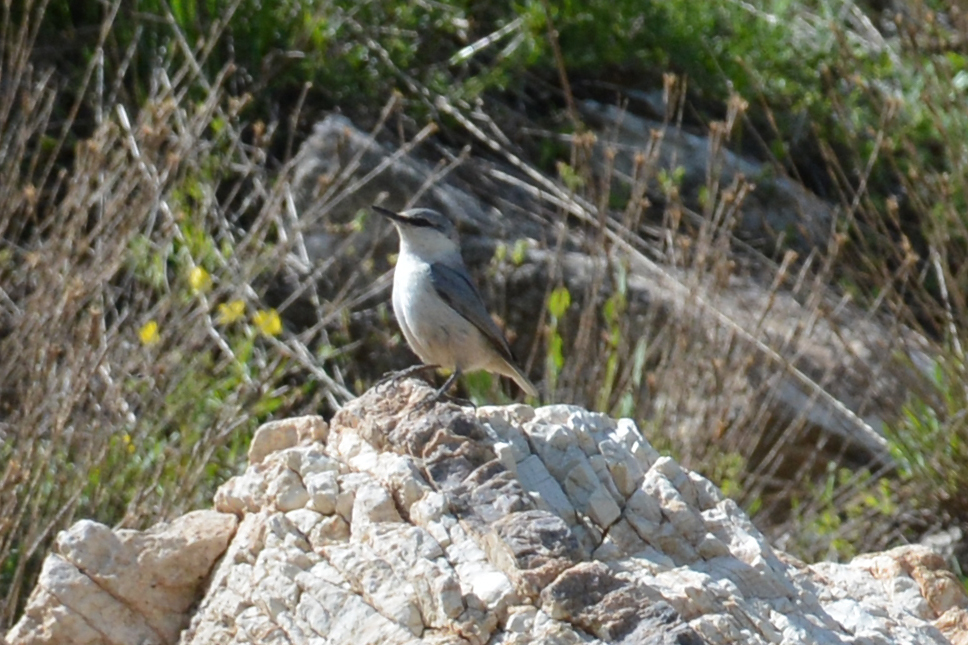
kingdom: Animalia
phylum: Chordata
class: Aves
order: Passeriformes
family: Sittidae
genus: Sitta
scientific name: Sitta neumayer
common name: Western rock nuthatch
